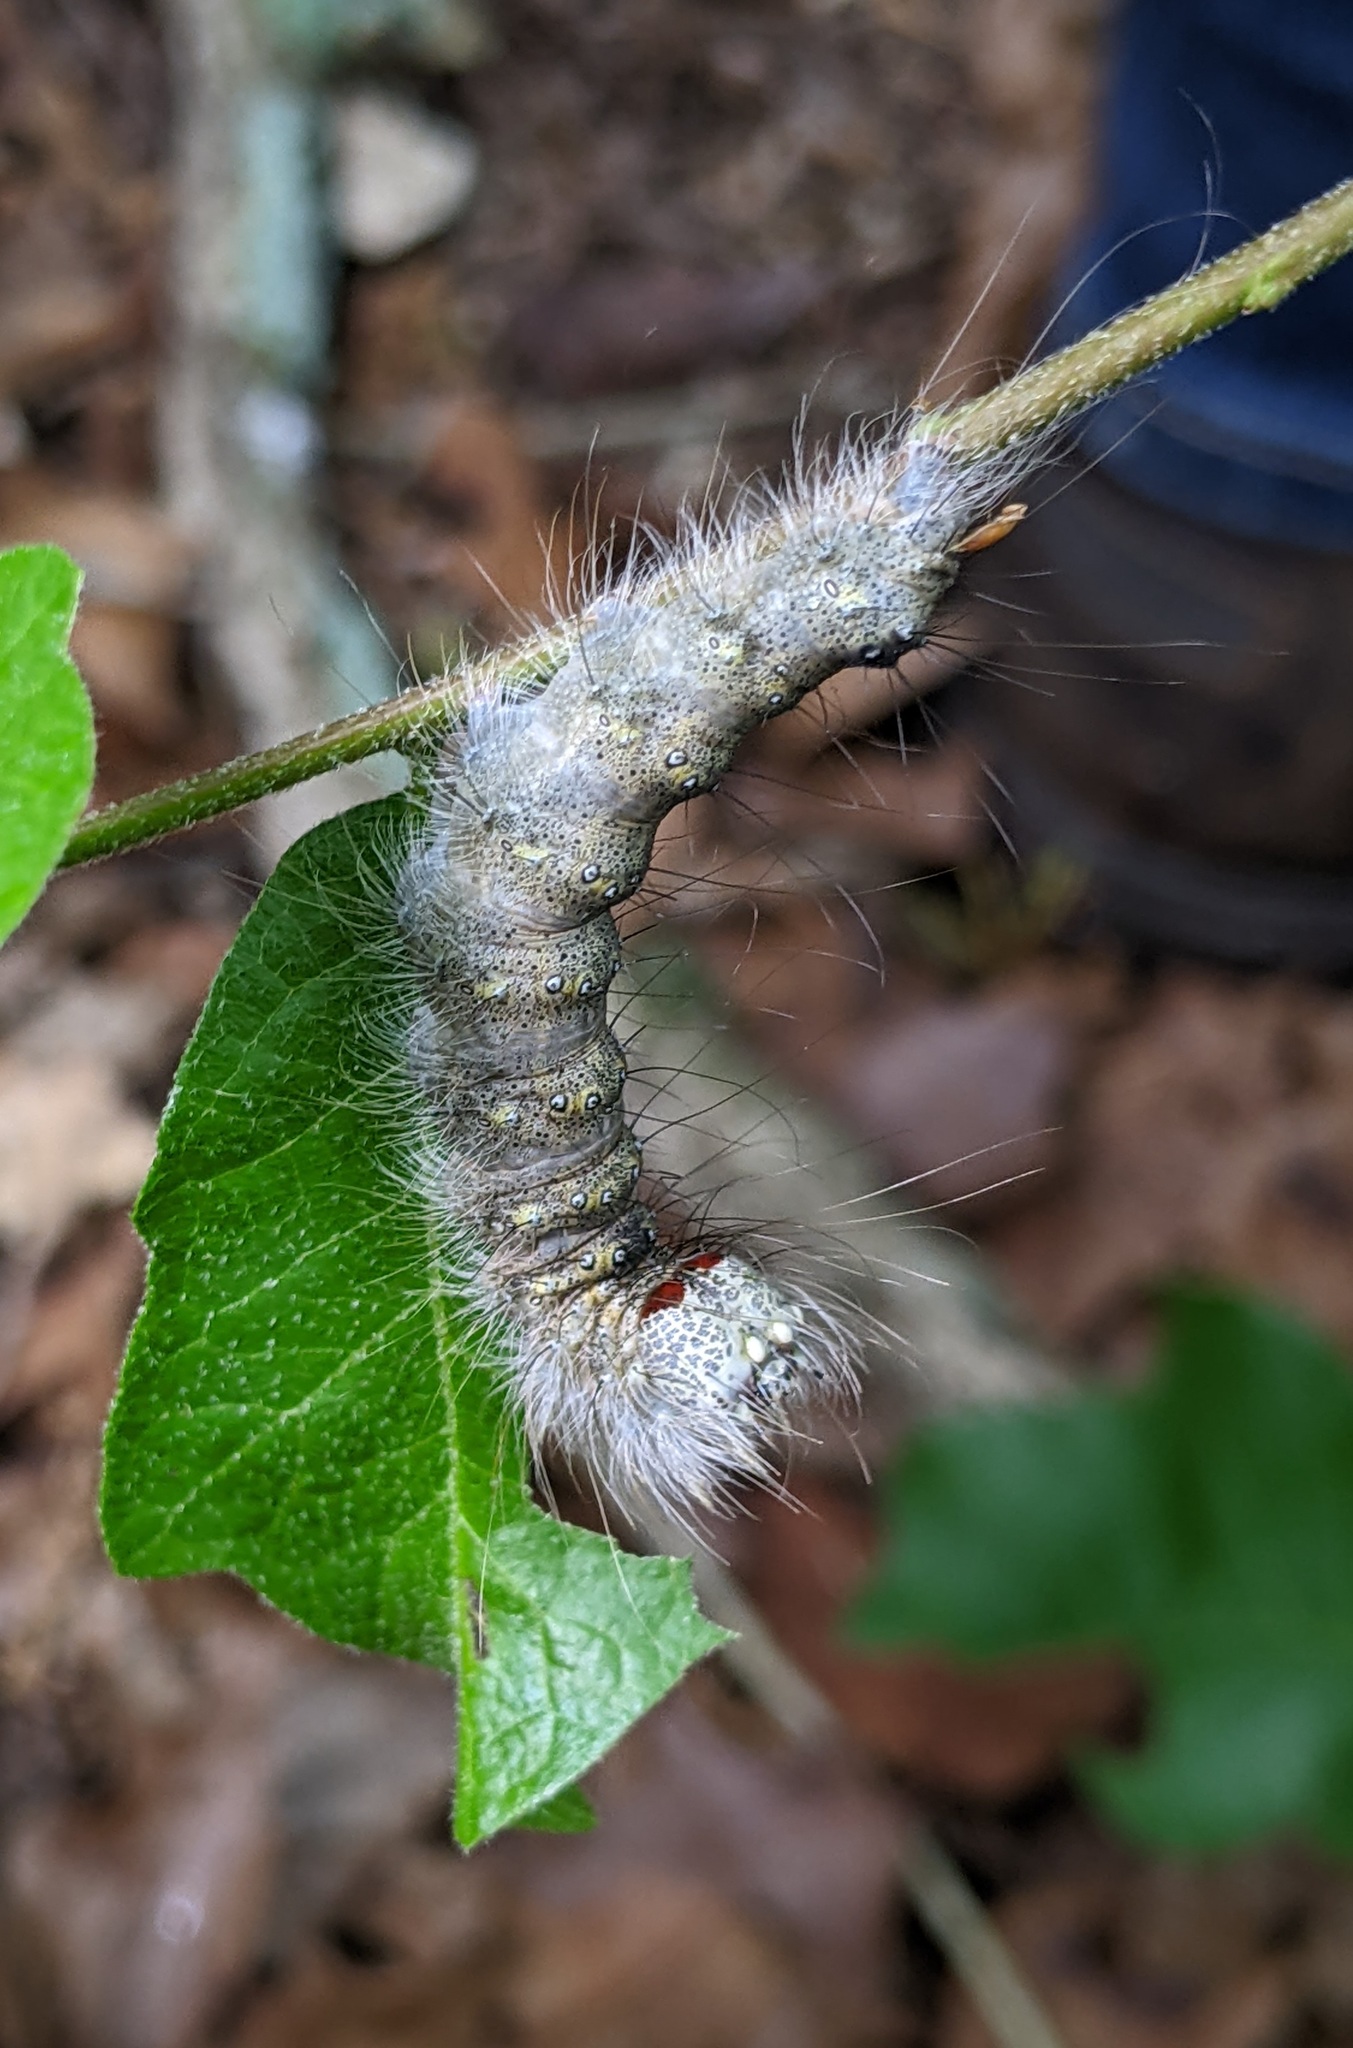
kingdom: Animalia
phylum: Arthropoda
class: Insecta
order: Lepidoptera
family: Noctuidae
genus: Acronicta
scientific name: Acronicta lobeliae
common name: Greater oak dagger
